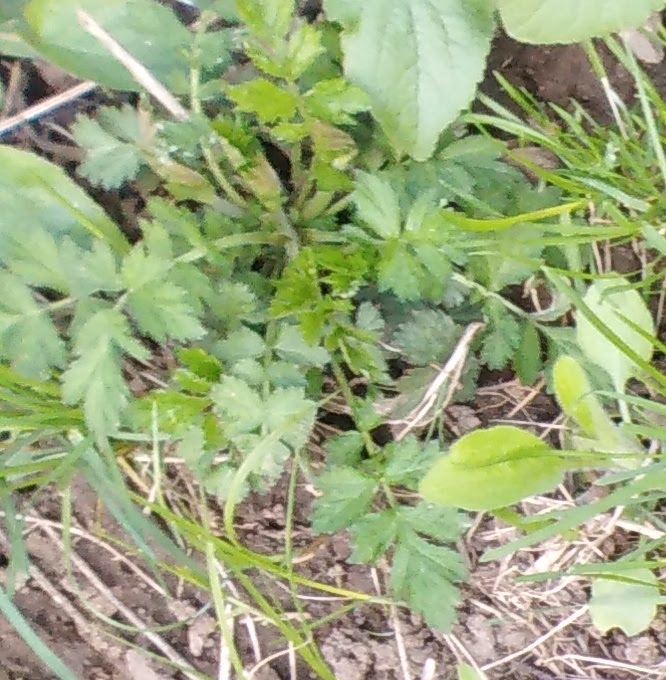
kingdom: Plantae
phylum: Tracheophyta
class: Magnoliopsida
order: Ranunculales
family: Ranunculaceae
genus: Ranunculus
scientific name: Ranunculus repens
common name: Creeping buttercup
